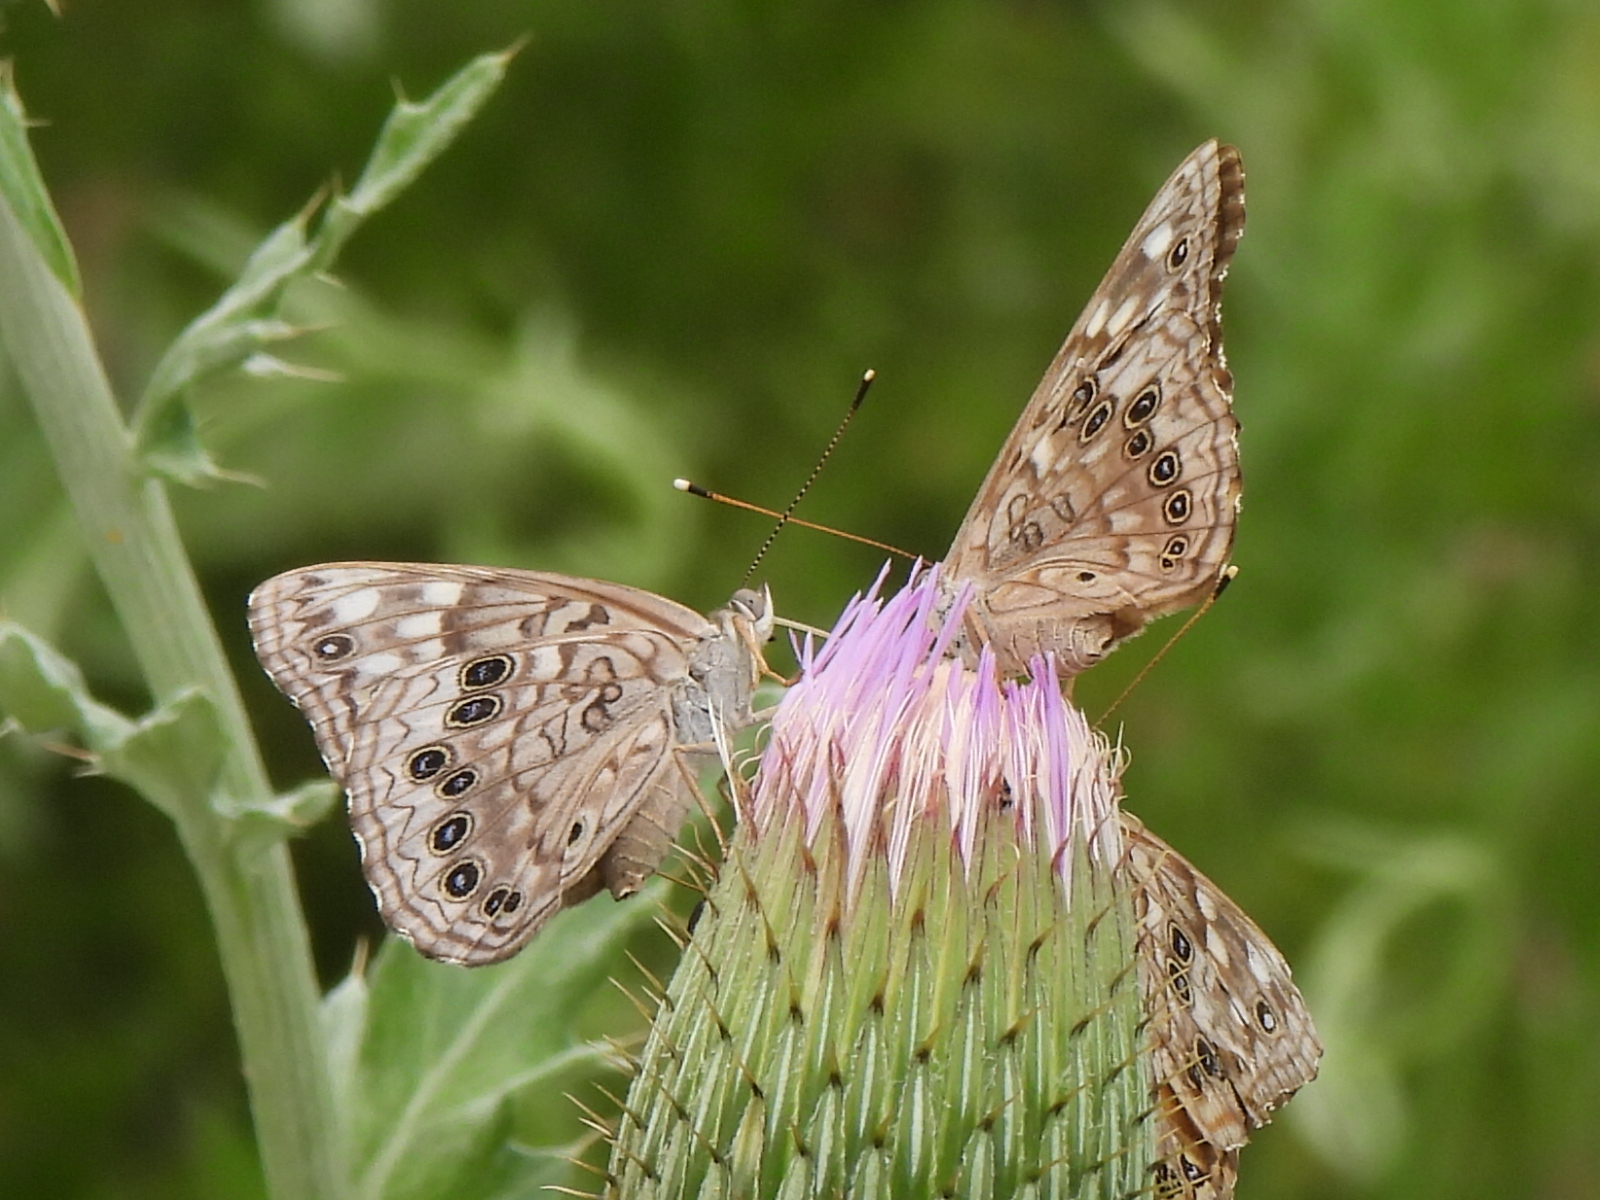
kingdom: Animalia
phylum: Arthropoda
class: Insecta
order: Lepidoptera
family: Nymphalidae
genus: Asterocampa
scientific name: Asterocampa celtis
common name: Hackberry emperor
